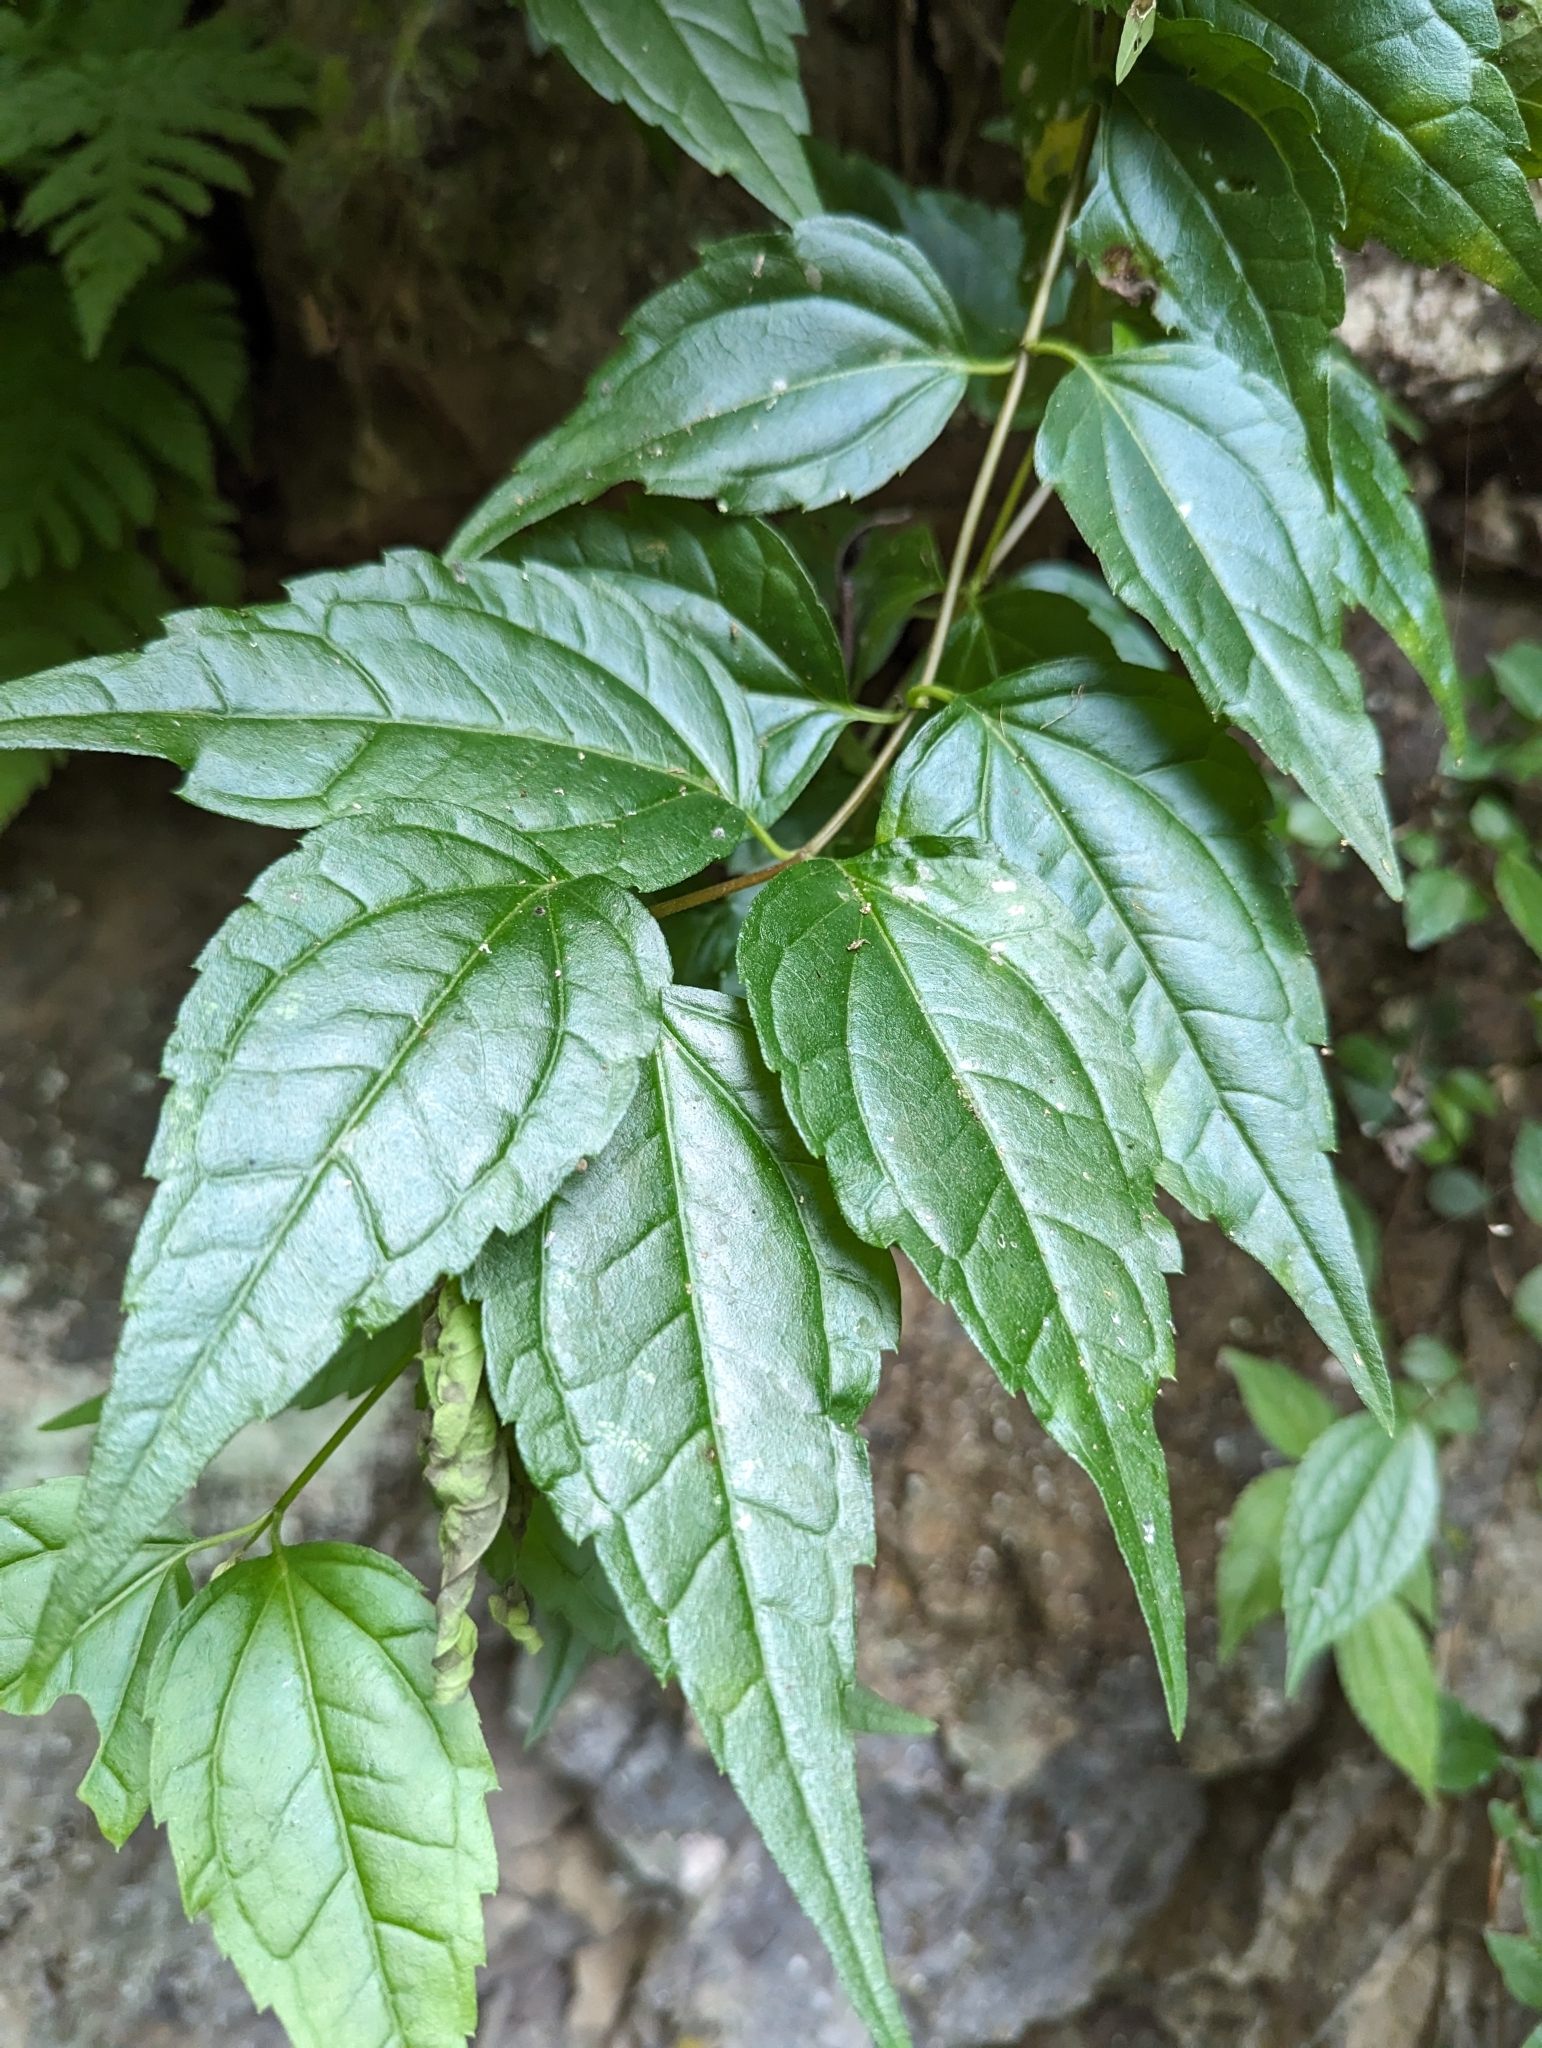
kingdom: Plantae
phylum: Tracheophyta
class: Magnoliopsida
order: Asterales
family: Asteraceae
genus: Eupatorium
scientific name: Eupatorium tashiroi
